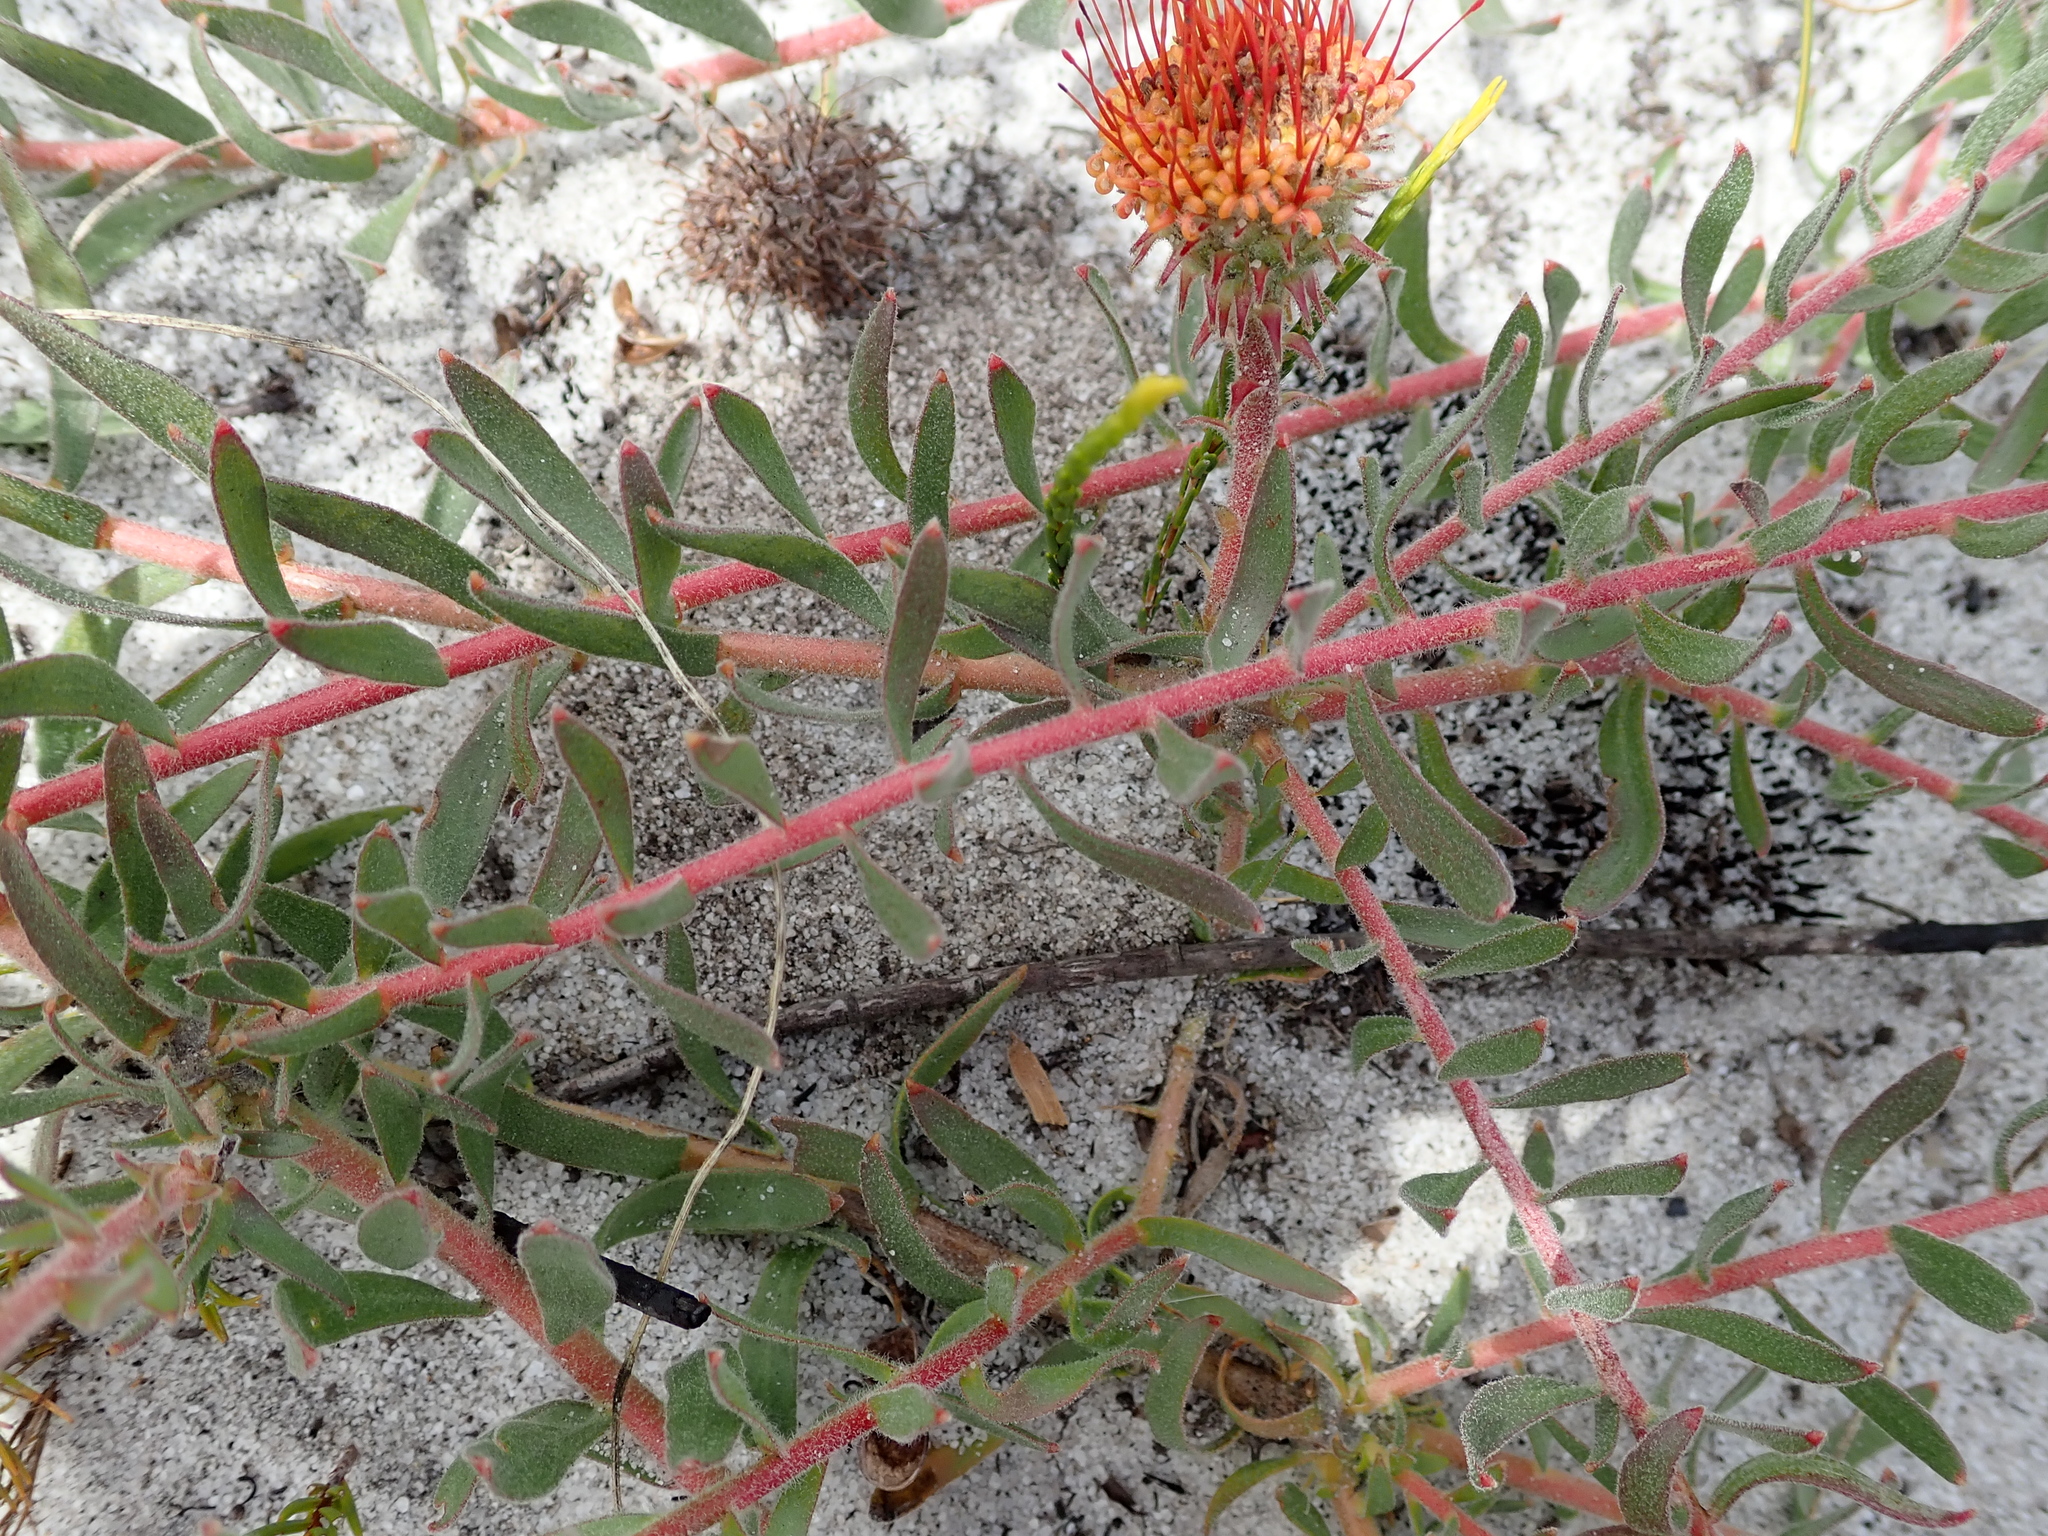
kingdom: Plantae
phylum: Tracheophyta
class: Magnoliopsida
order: Proteales
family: Proteaceae
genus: Leucospermum
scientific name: Leucospermum prostratum
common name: Yellow-trailing pincushion
